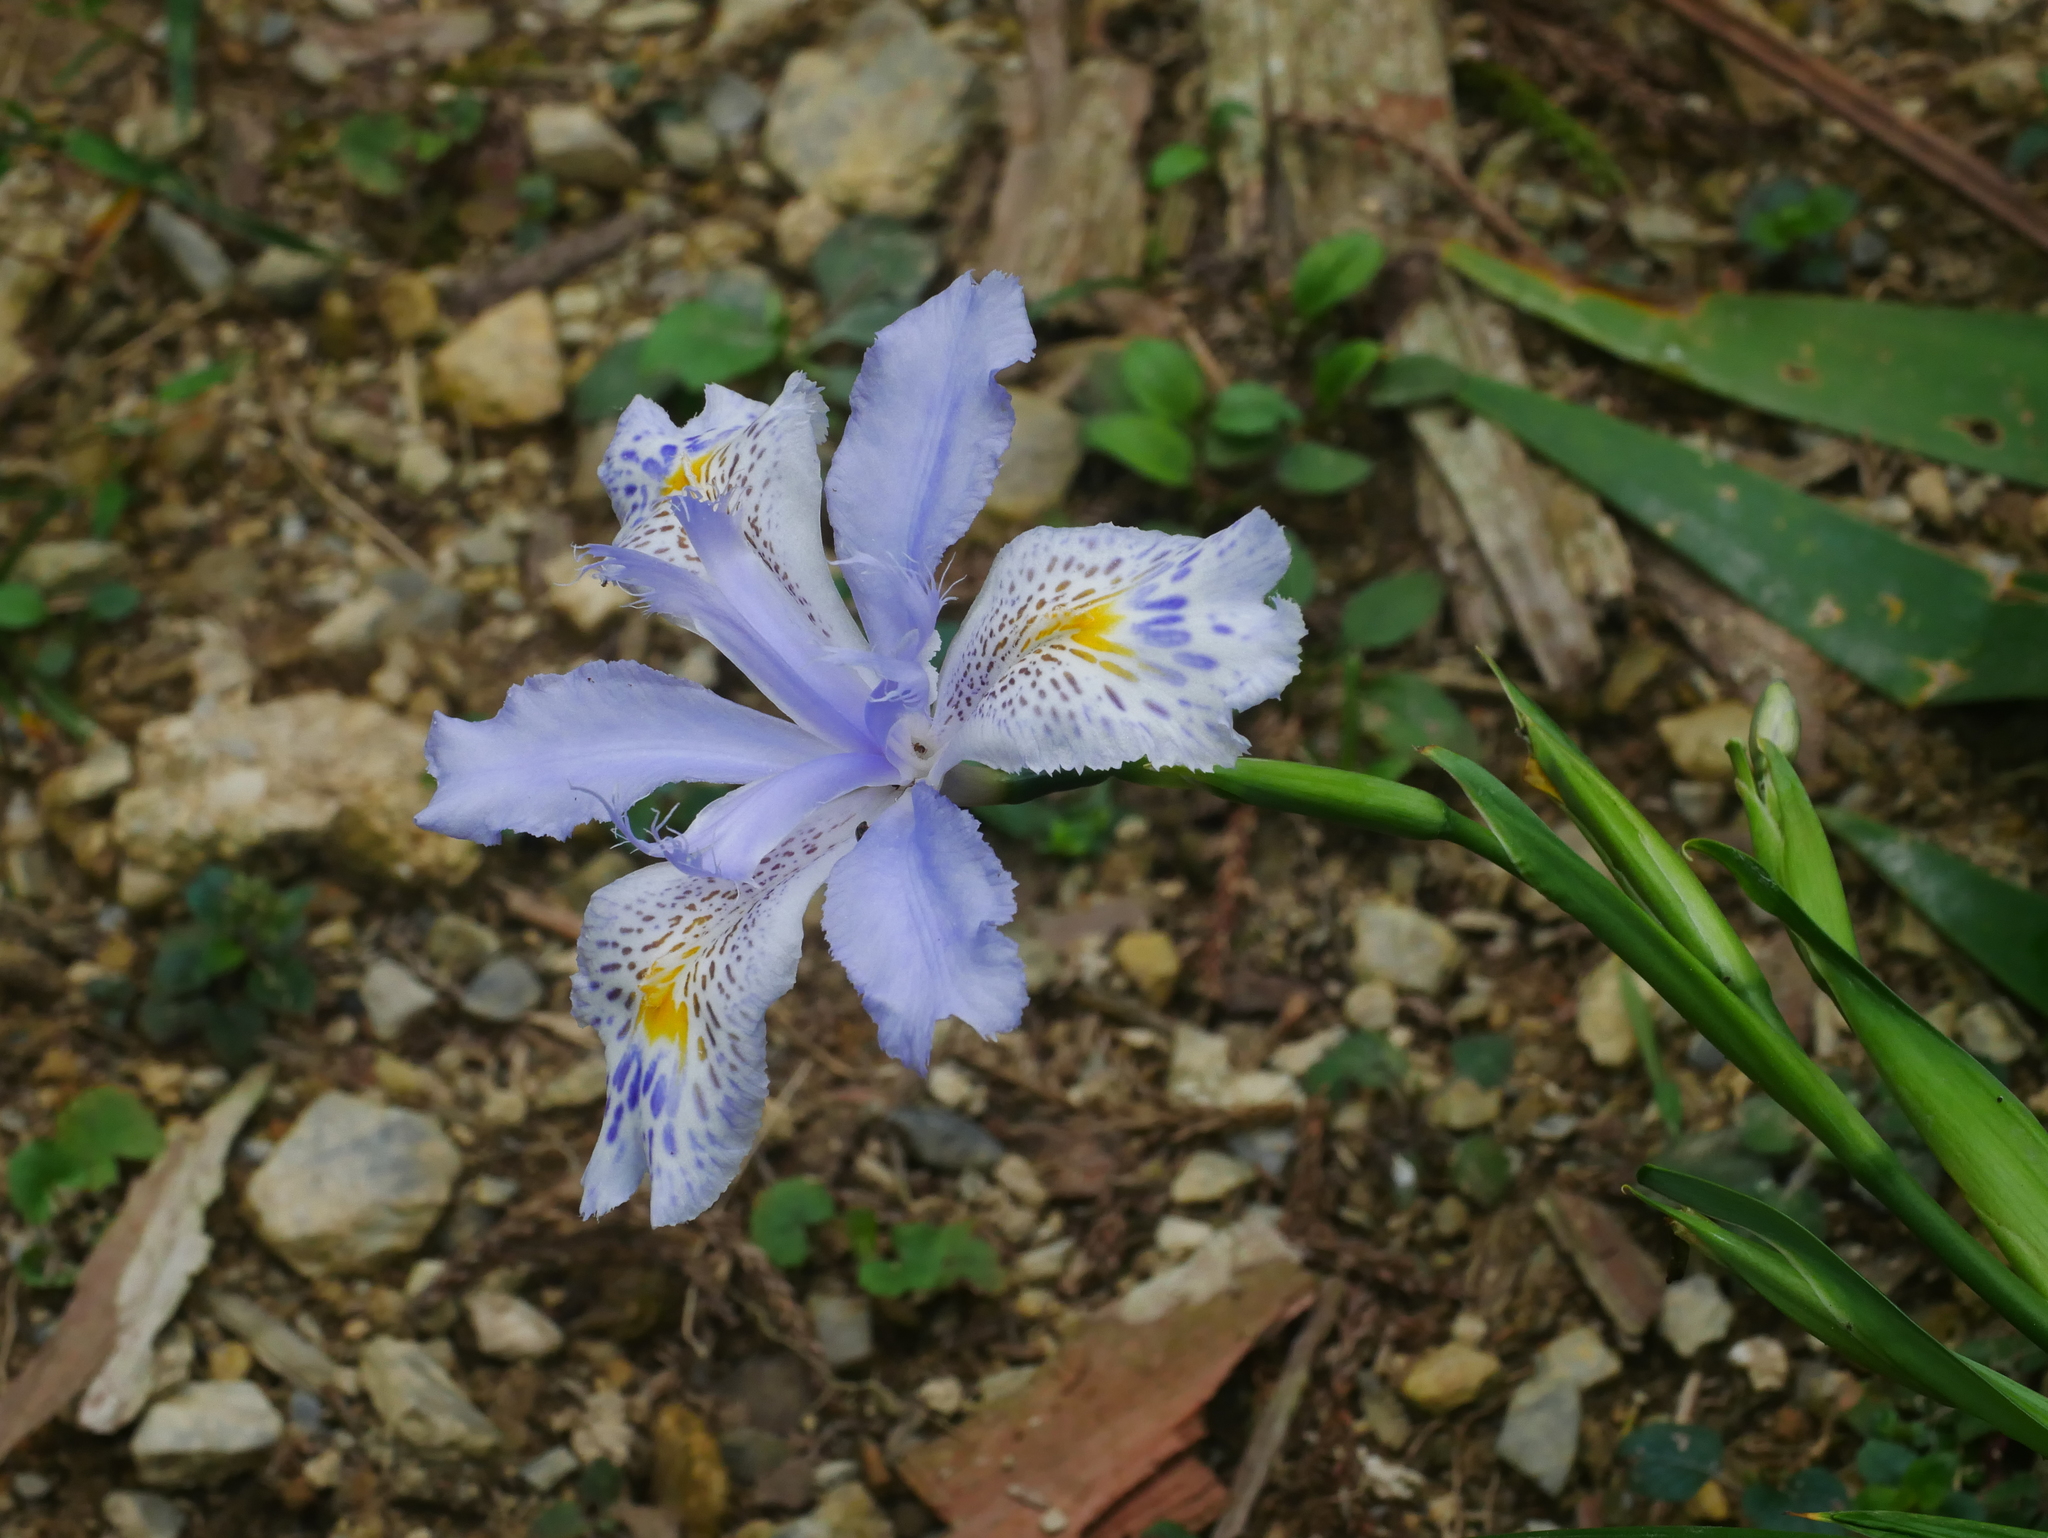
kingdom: Plantae
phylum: Tracheophyta
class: Liliopsida
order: Asparagales
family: Iridaceae
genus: Iris
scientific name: Iris formosana
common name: Taiwan iris
